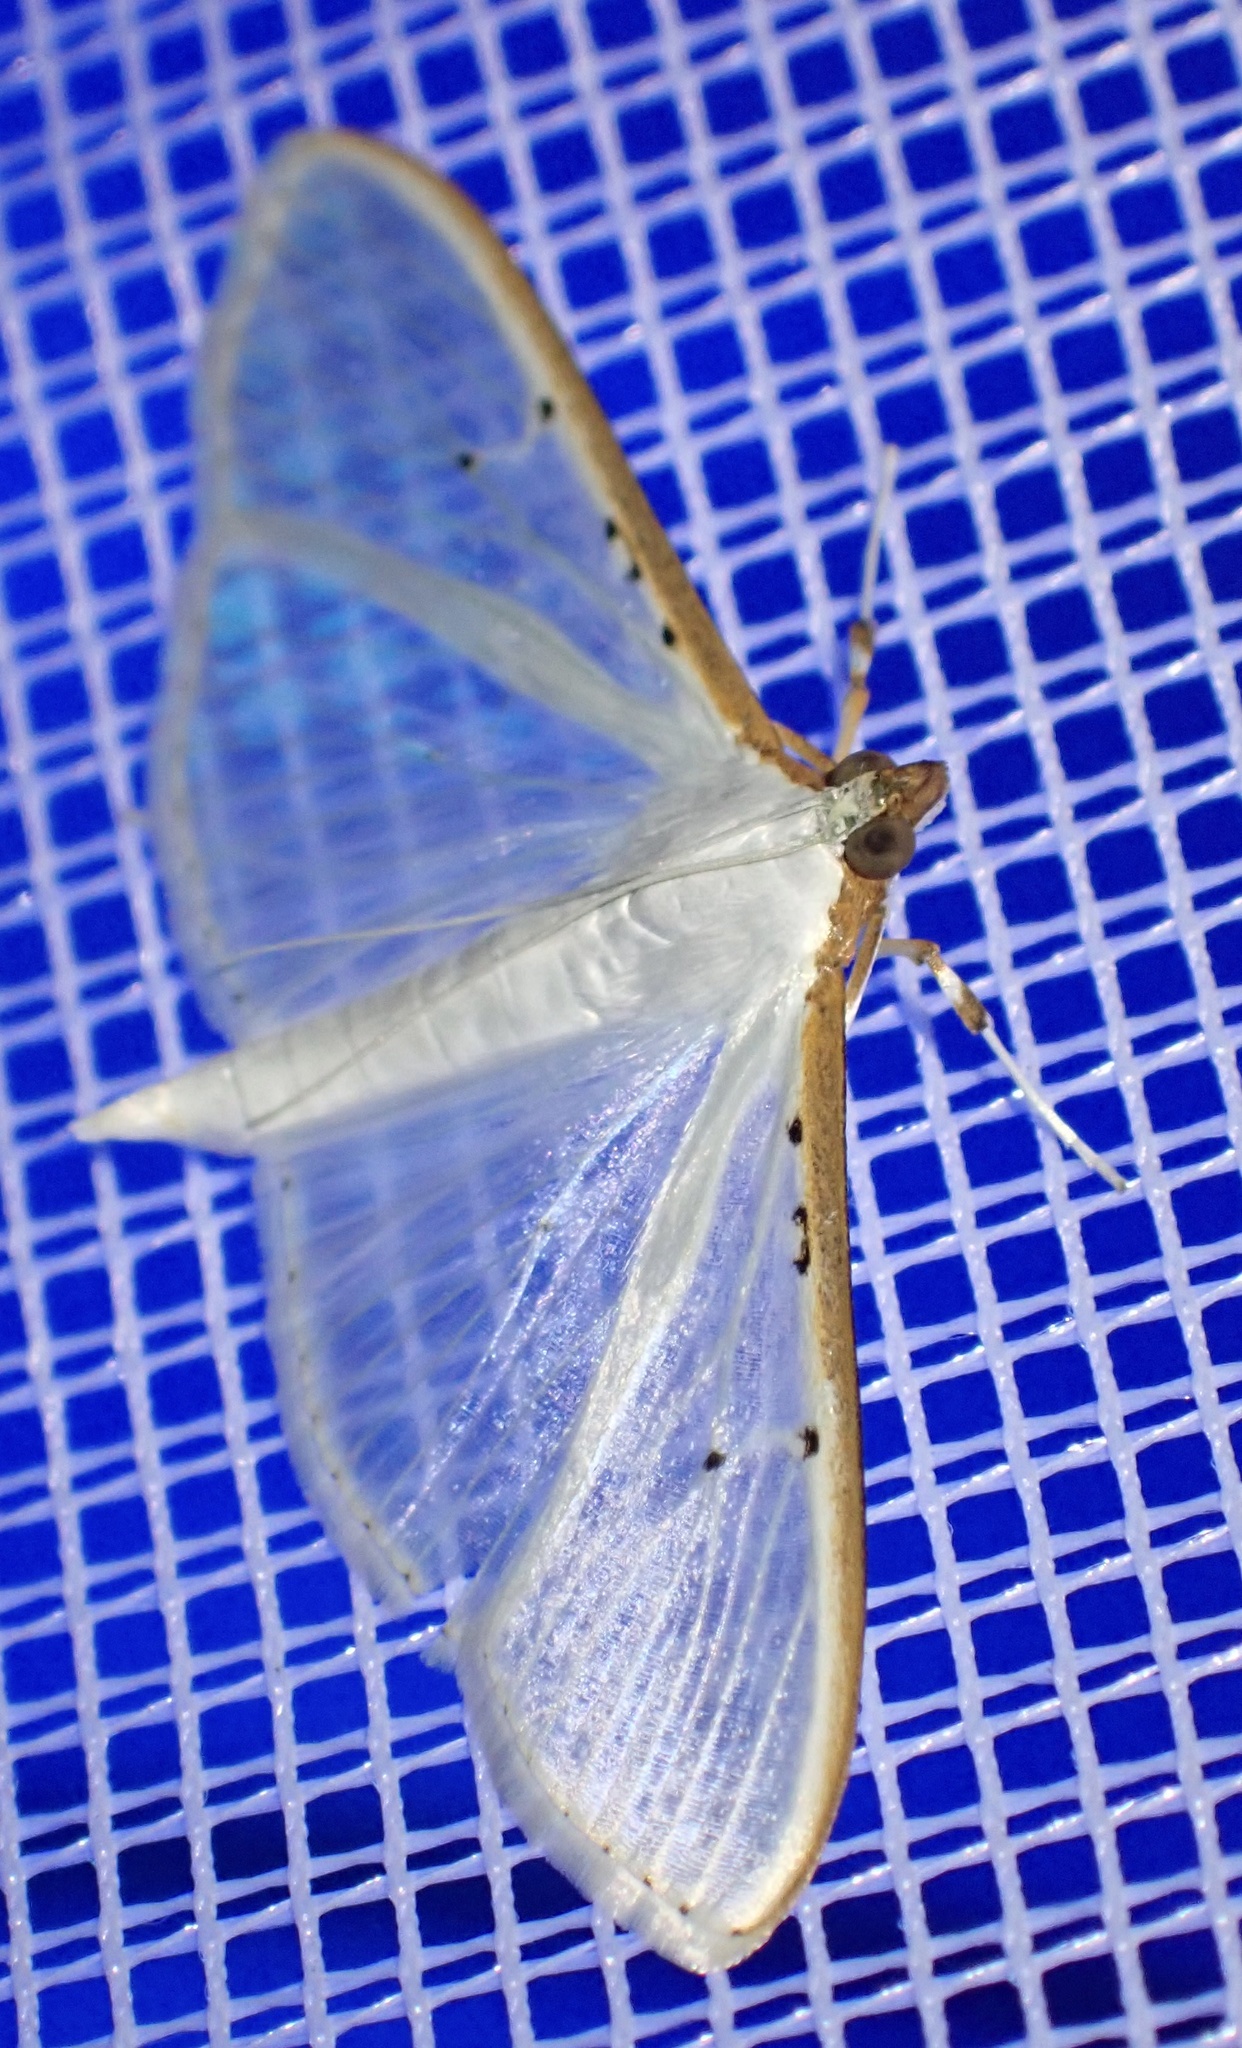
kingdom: Animalia
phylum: Arthropoda
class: Insecta
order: Lepidoptera
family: Crambidae
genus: Palpita
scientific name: Palpita vitrealis
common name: Olive-tree pearl
